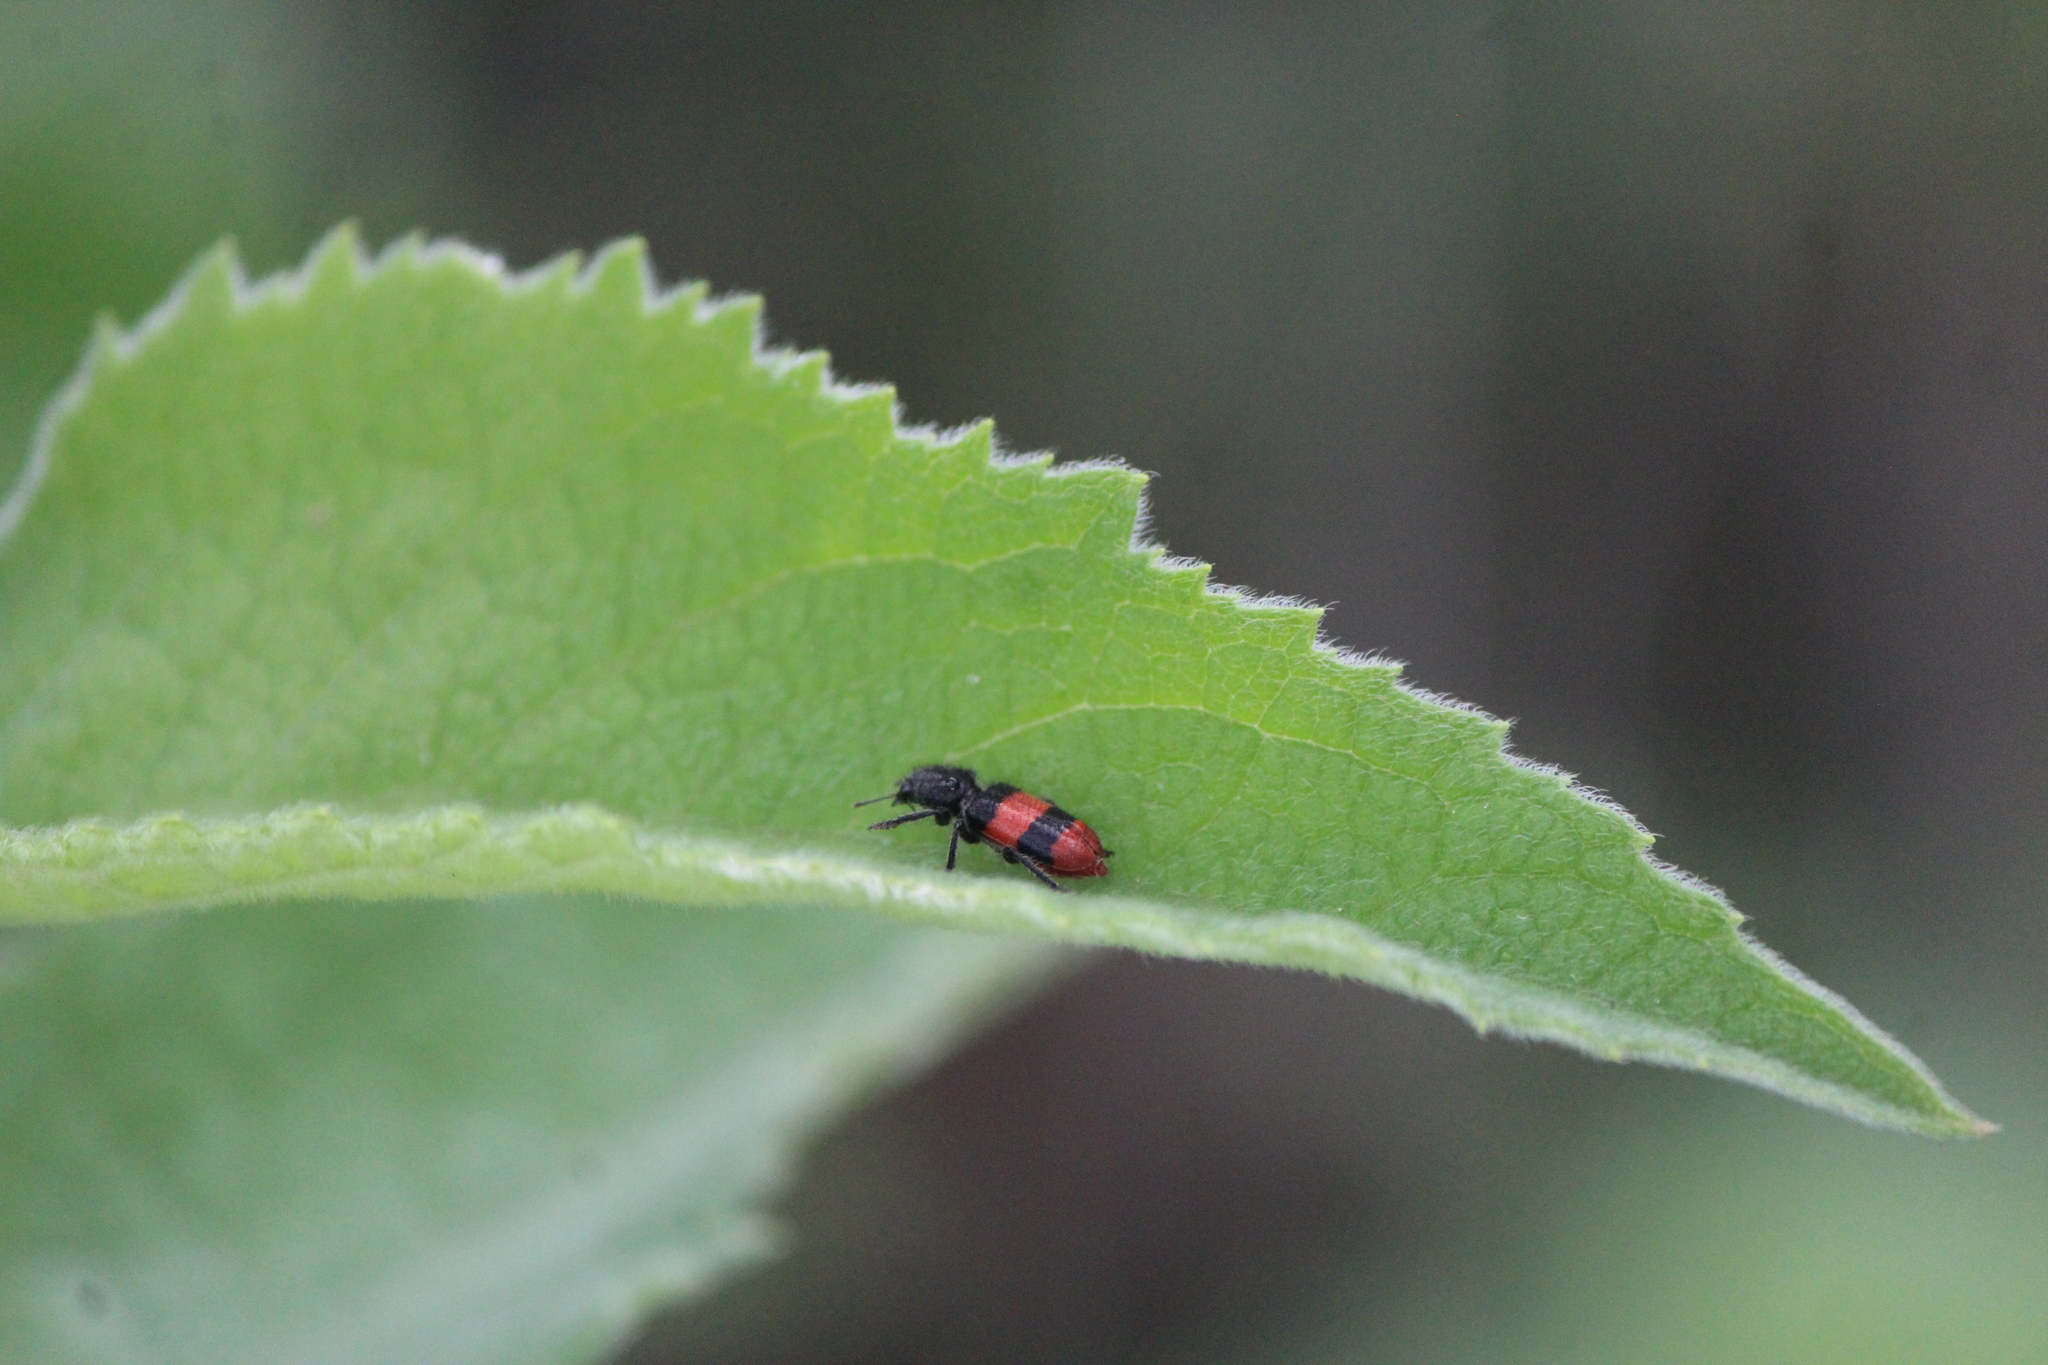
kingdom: Animalia
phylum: Arthropoda
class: Insecta
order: Coleoptera
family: Cleridae
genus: Enoclerus
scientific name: Enoclerus zonatus
